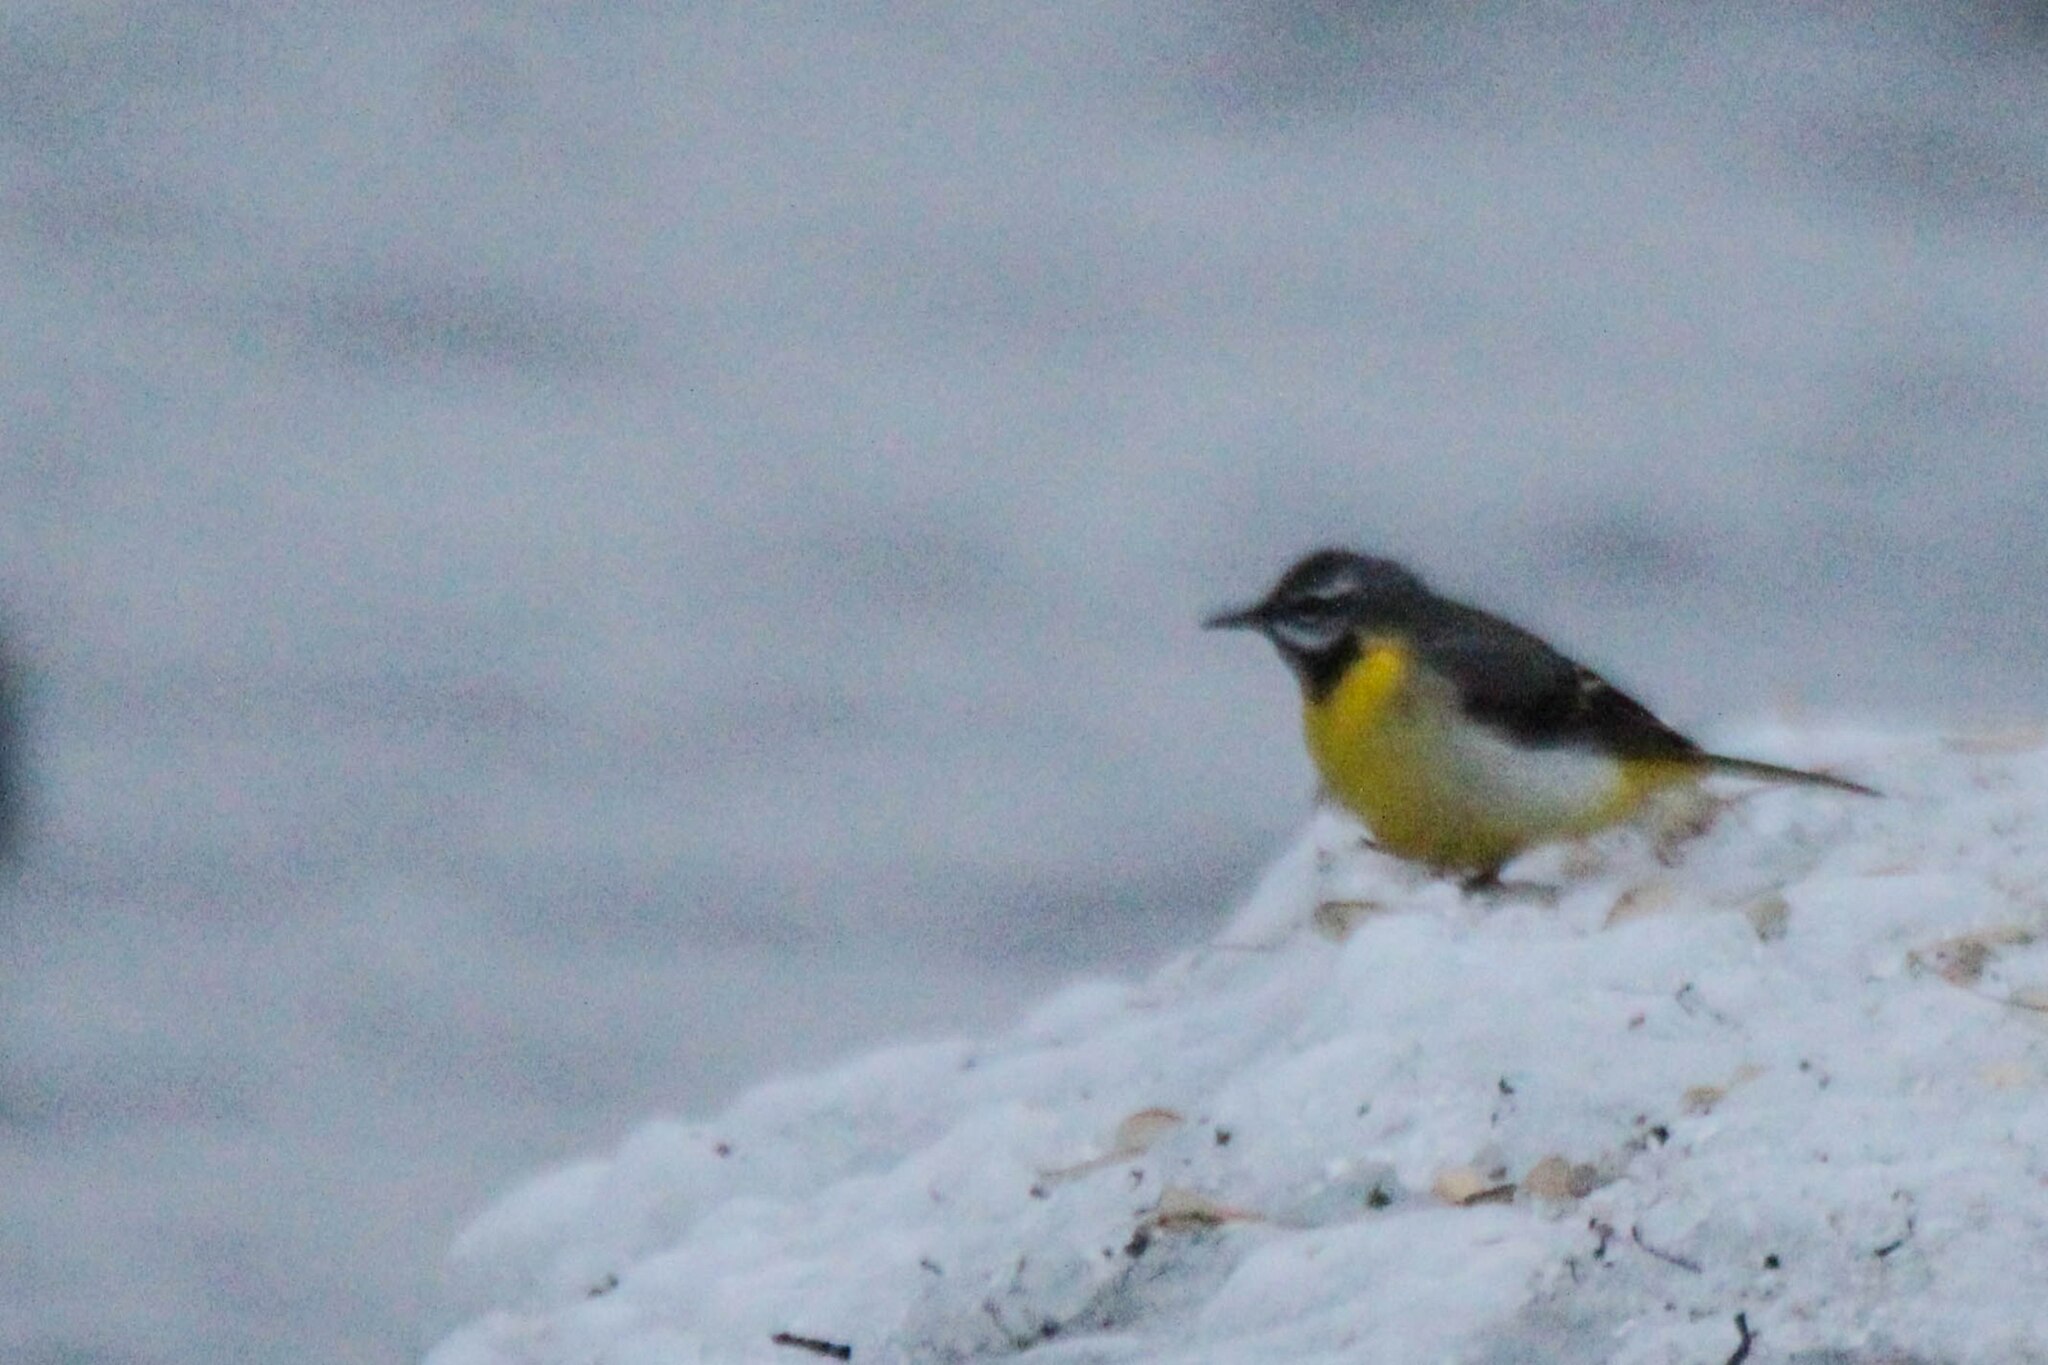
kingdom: Animalia
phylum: Chordata
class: Aves
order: Passeriformes
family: Motacillidae
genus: Motacilla
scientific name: Motacilla cinerea
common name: Grey wagtail
